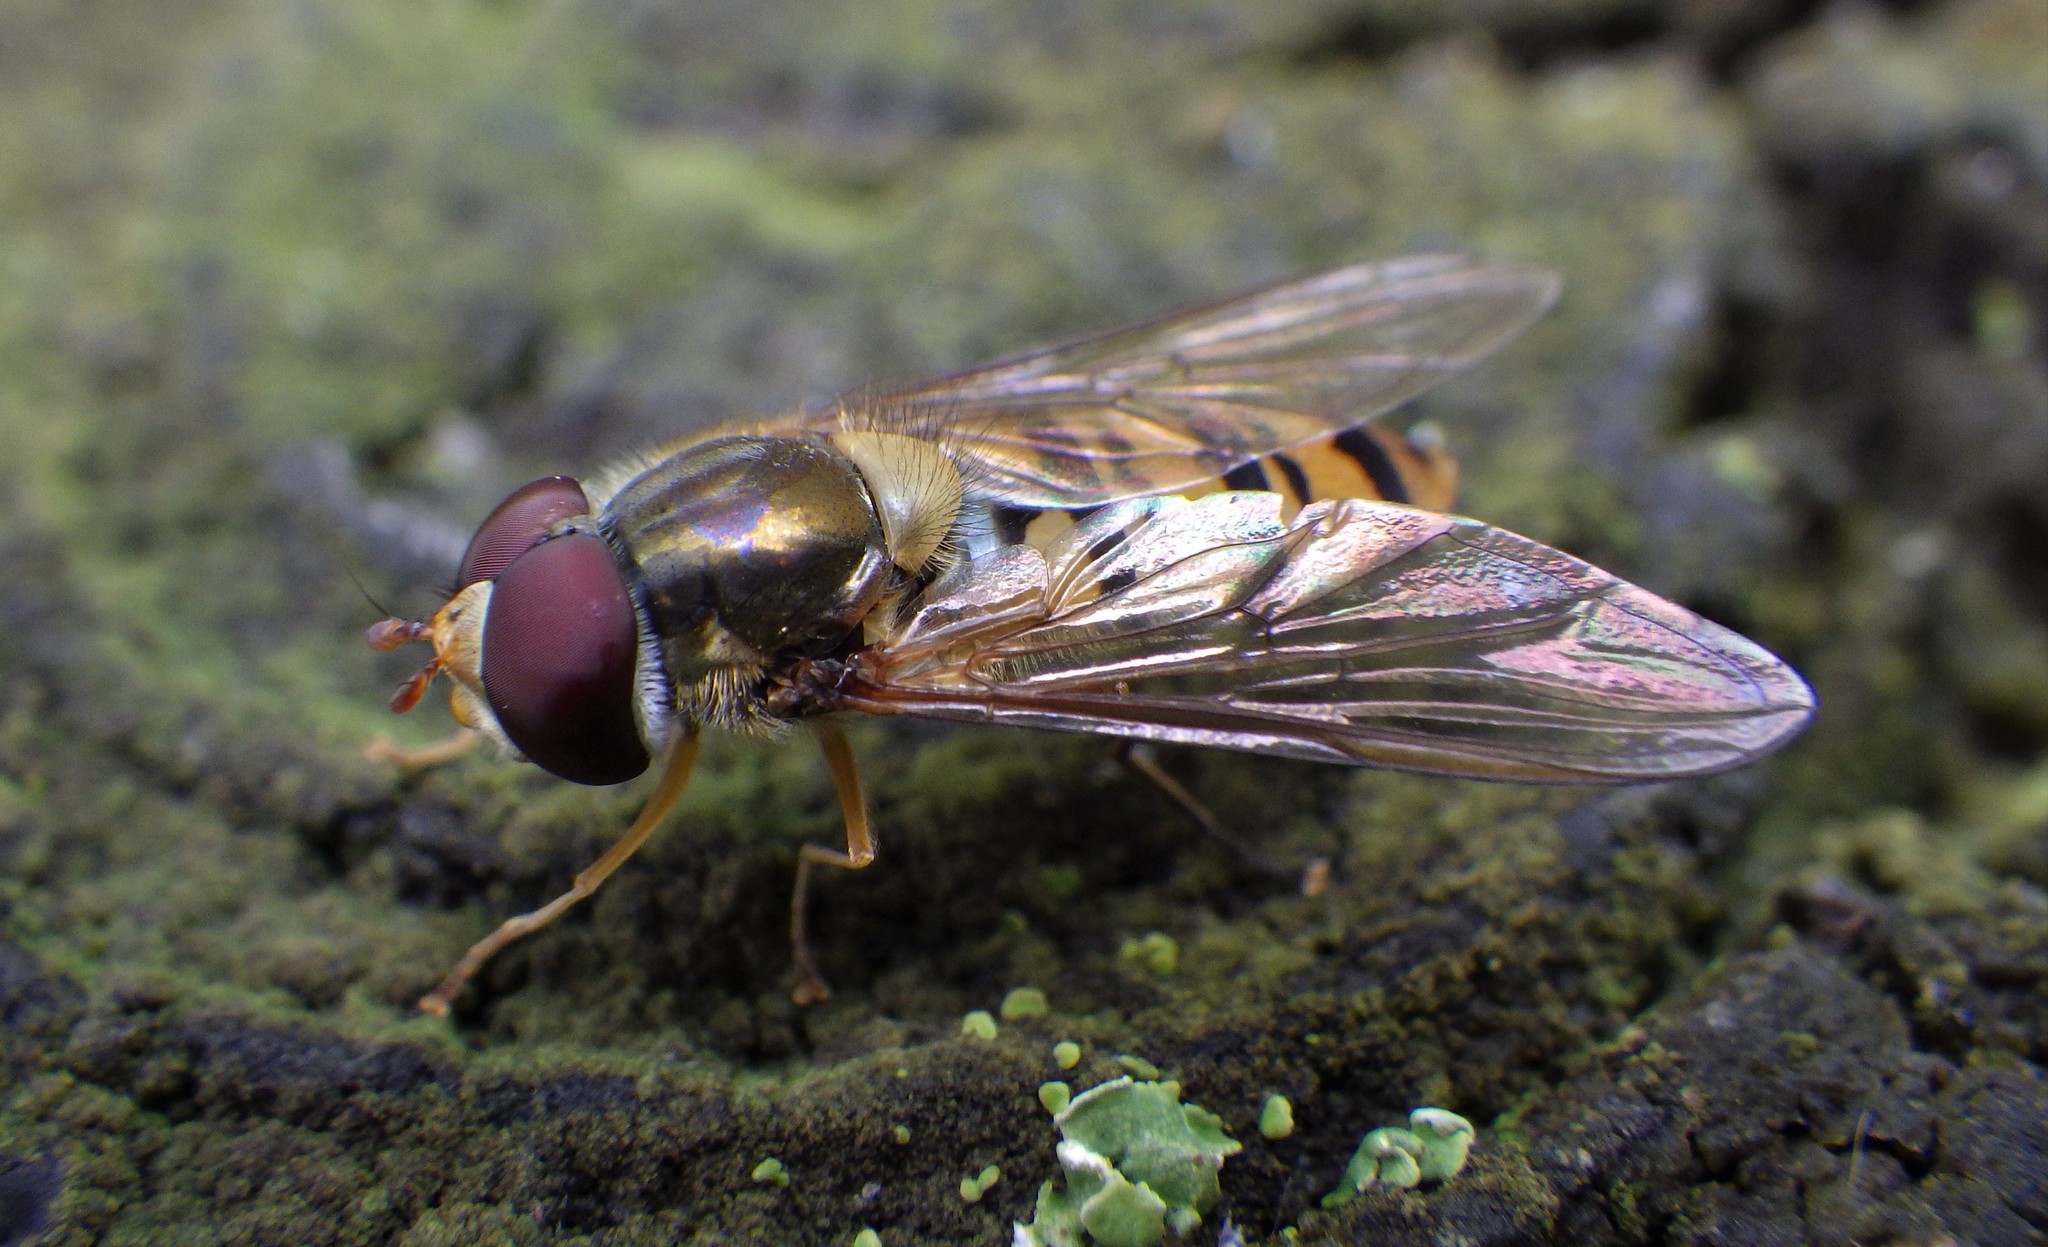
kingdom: Animalia
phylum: Arthropoda
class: Insecta
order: Diptera
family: Syrphidae
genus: Episyrphus
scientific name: Episyrphus balteatus
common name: Marmalade hoverfly
